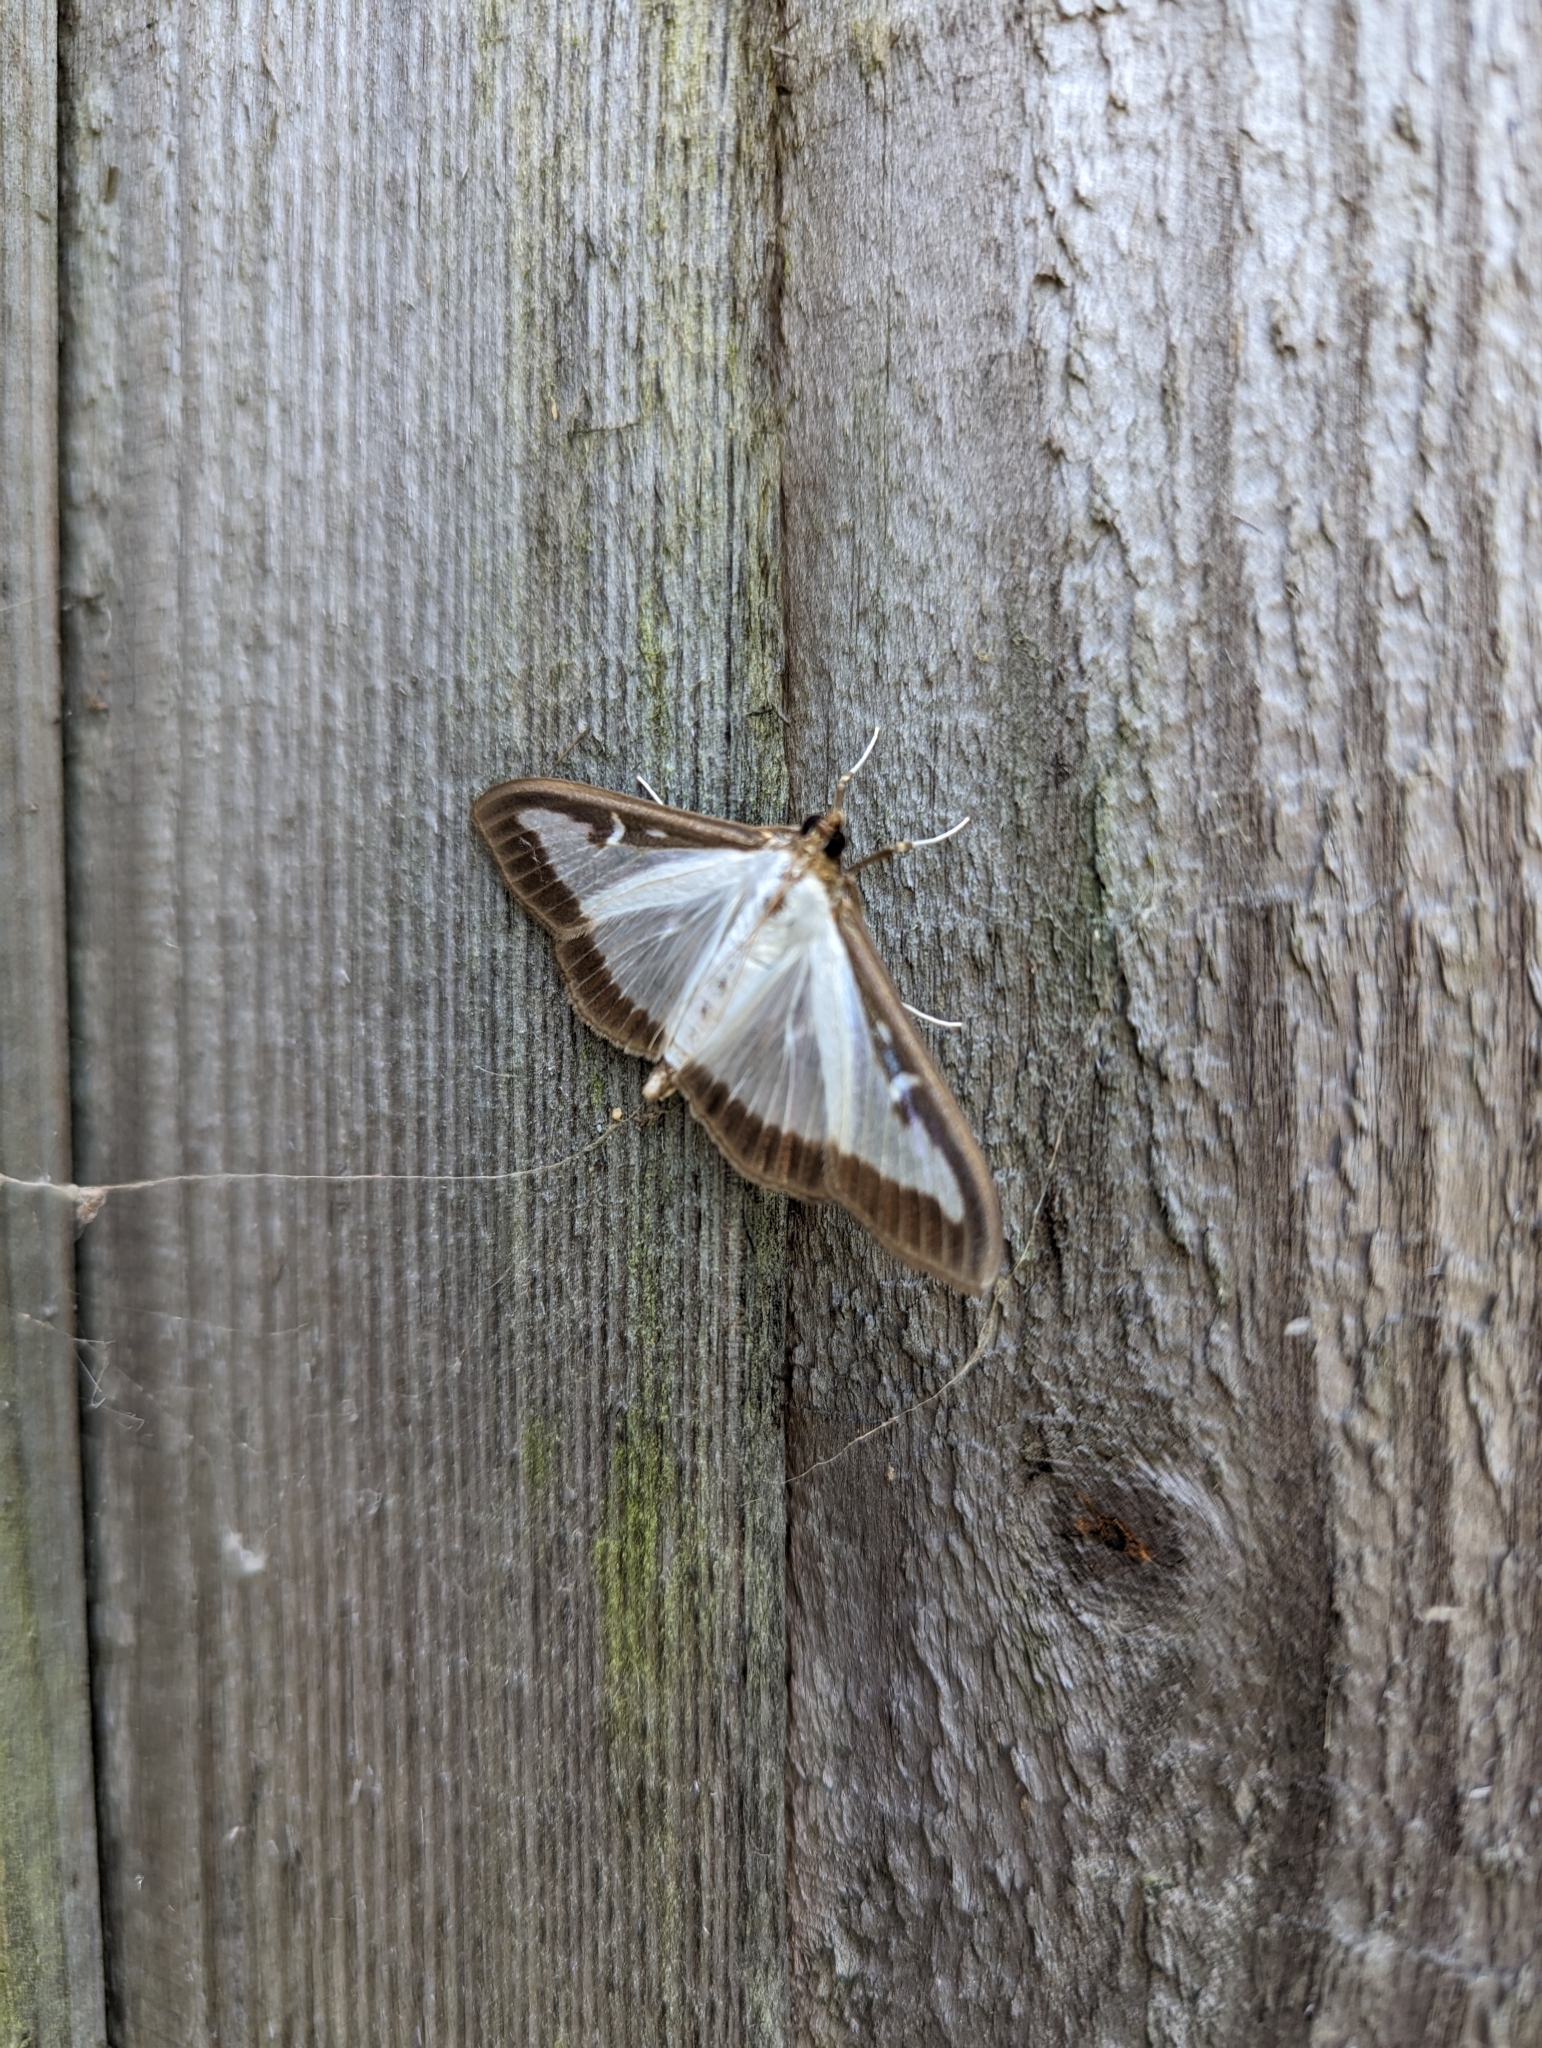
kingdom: Animalia
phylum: Arthropoda
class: Insecta
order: Lepidoptera
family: Crambidae
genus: Cydalima
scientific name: Cydalima perspectalis
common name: Box tree moth
